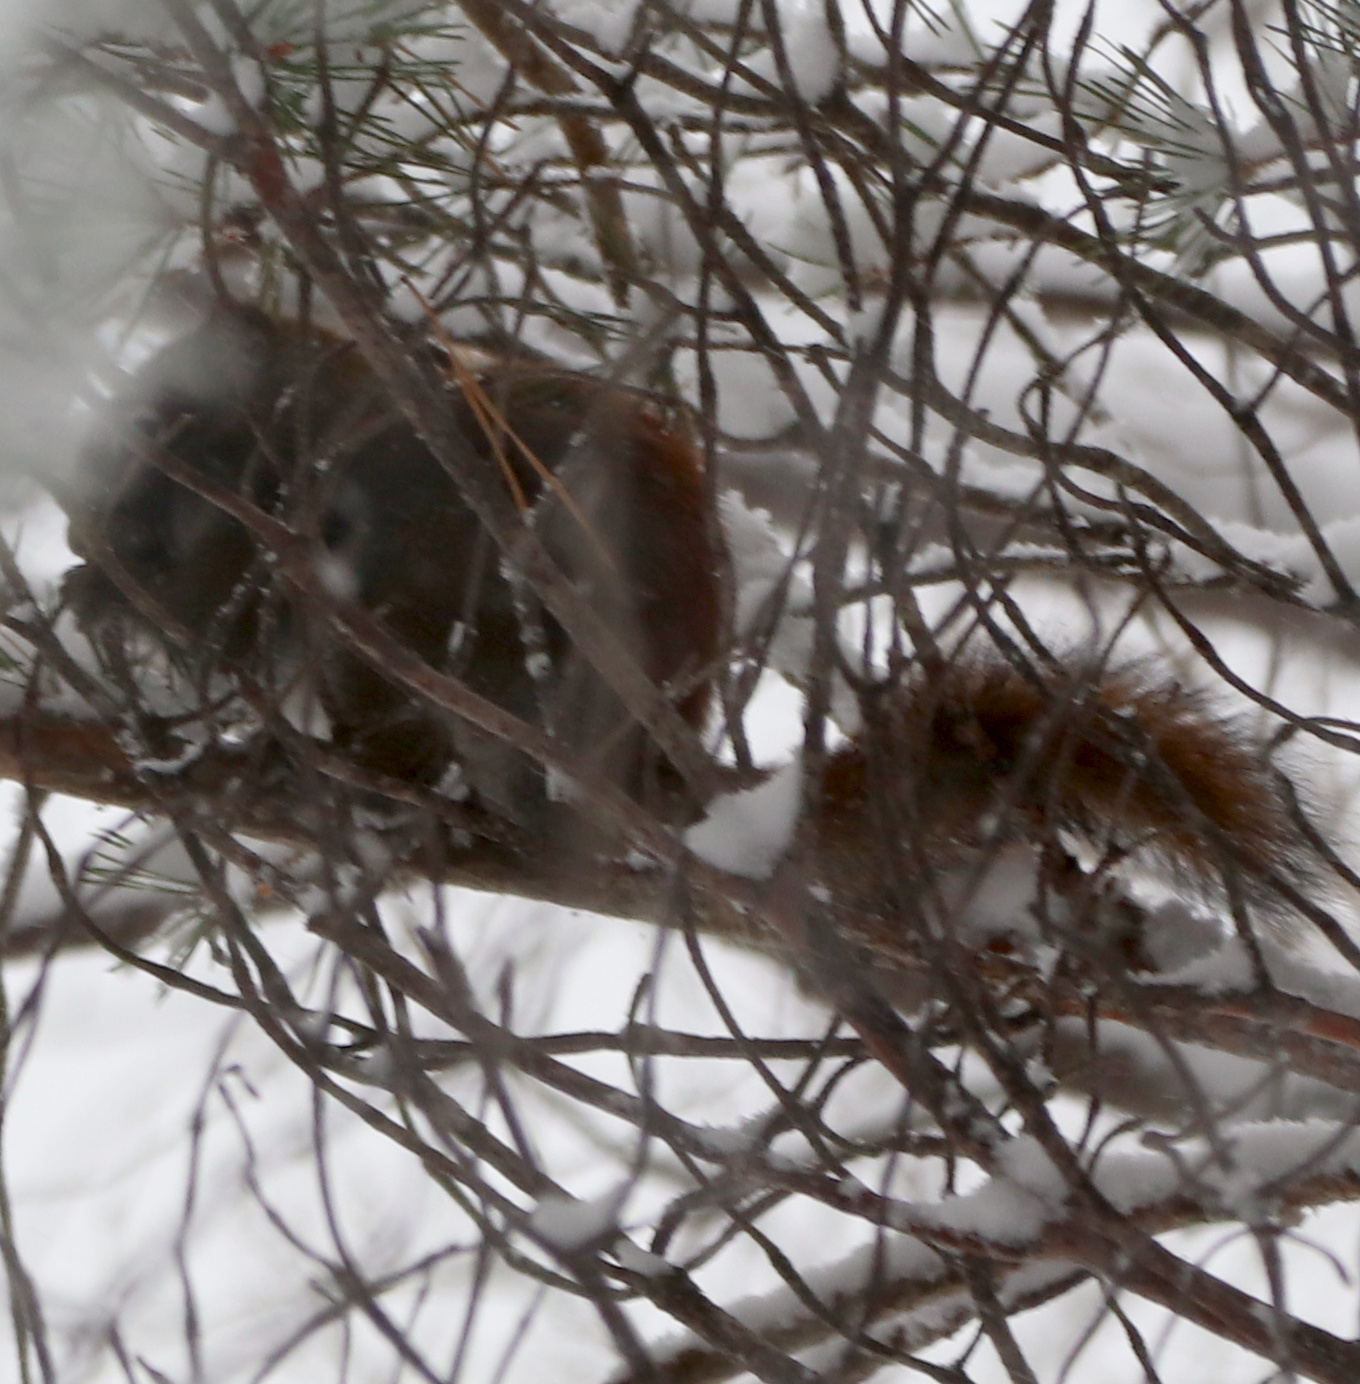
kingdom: Animalia
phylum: Chordata
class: Mammalia
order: Rodentia
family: Sciuridae
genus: Tamiasciurus
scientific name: Tamiasciurus hudsonicus
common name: Red squirrel
